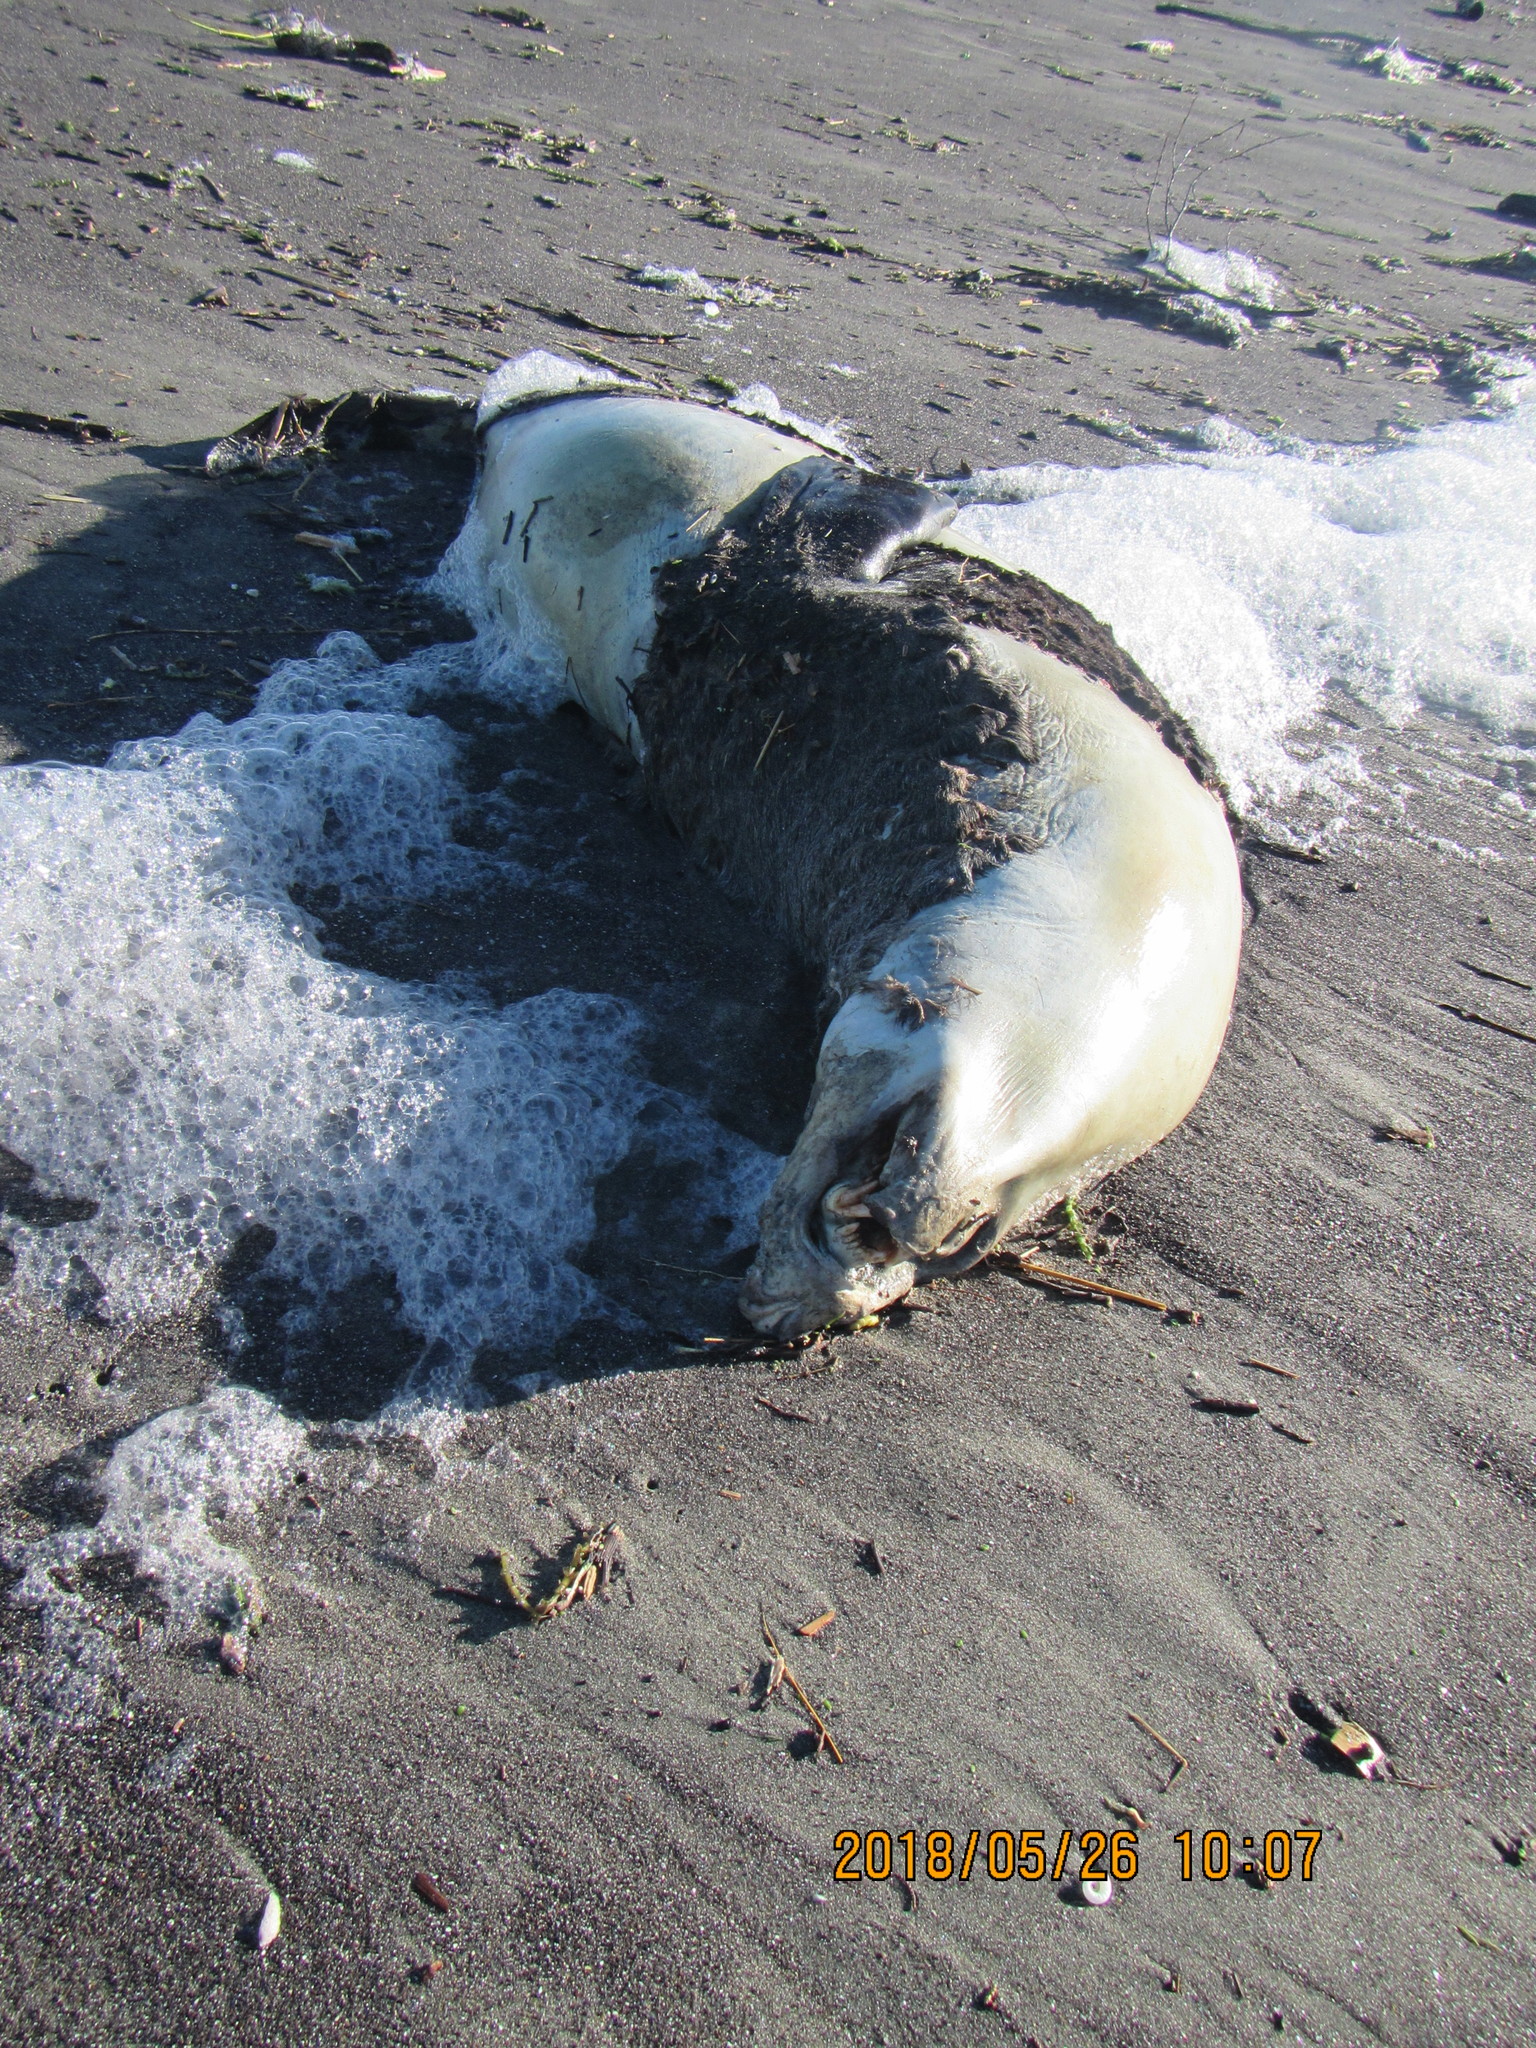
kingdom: Animalia
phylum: Chordata
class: Mammalia
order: Carnivora
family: Otariidae
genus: Arctocephalus
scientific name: Arctocephalus forsteri
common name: New zealand fur seal
